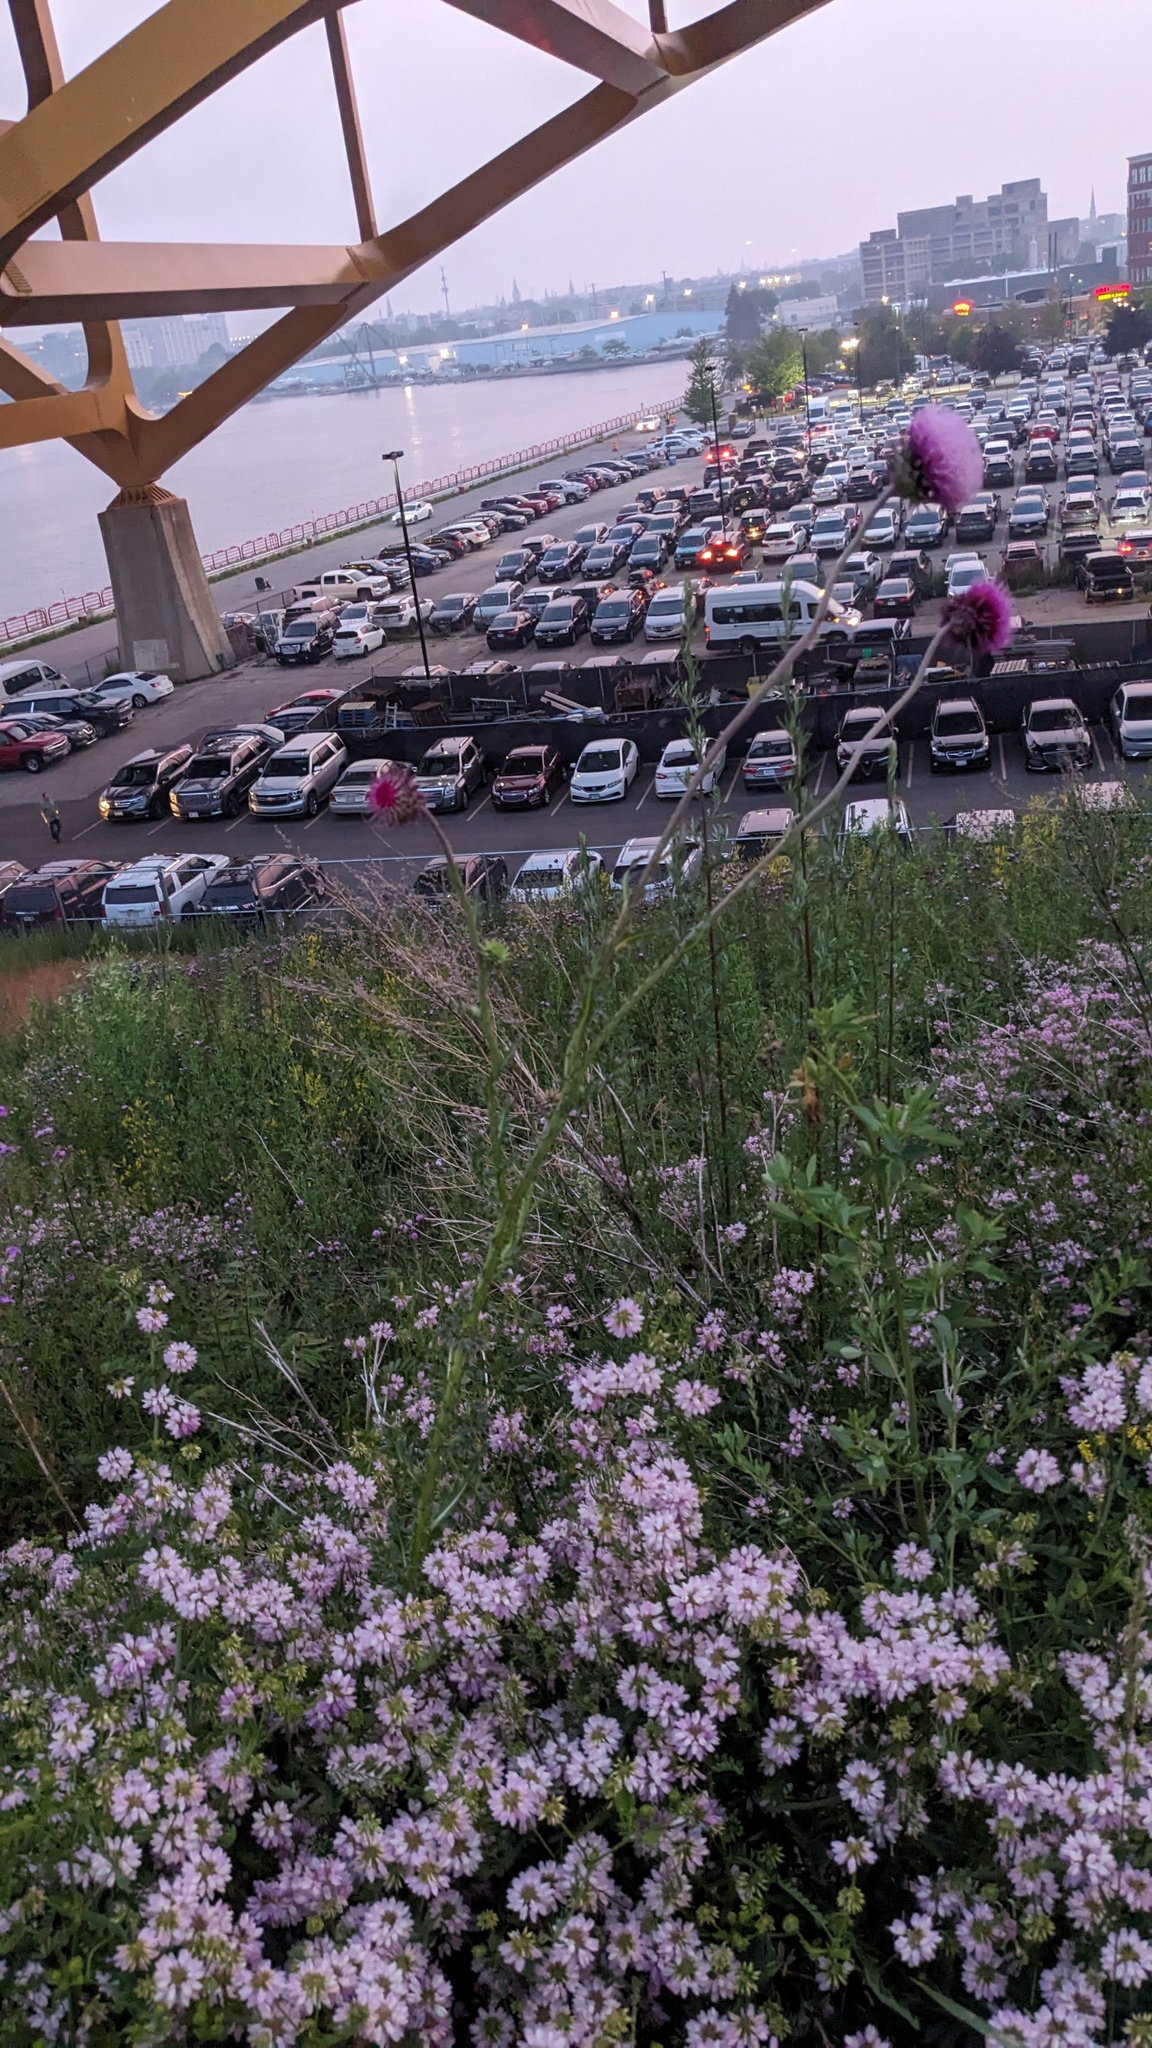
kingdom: Plantae
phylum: Tracheophyta
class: Magnoliopsida
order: Asterales
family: Asteraceae
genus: Carduus
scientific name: Carduus nutans
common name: Musk thistle
